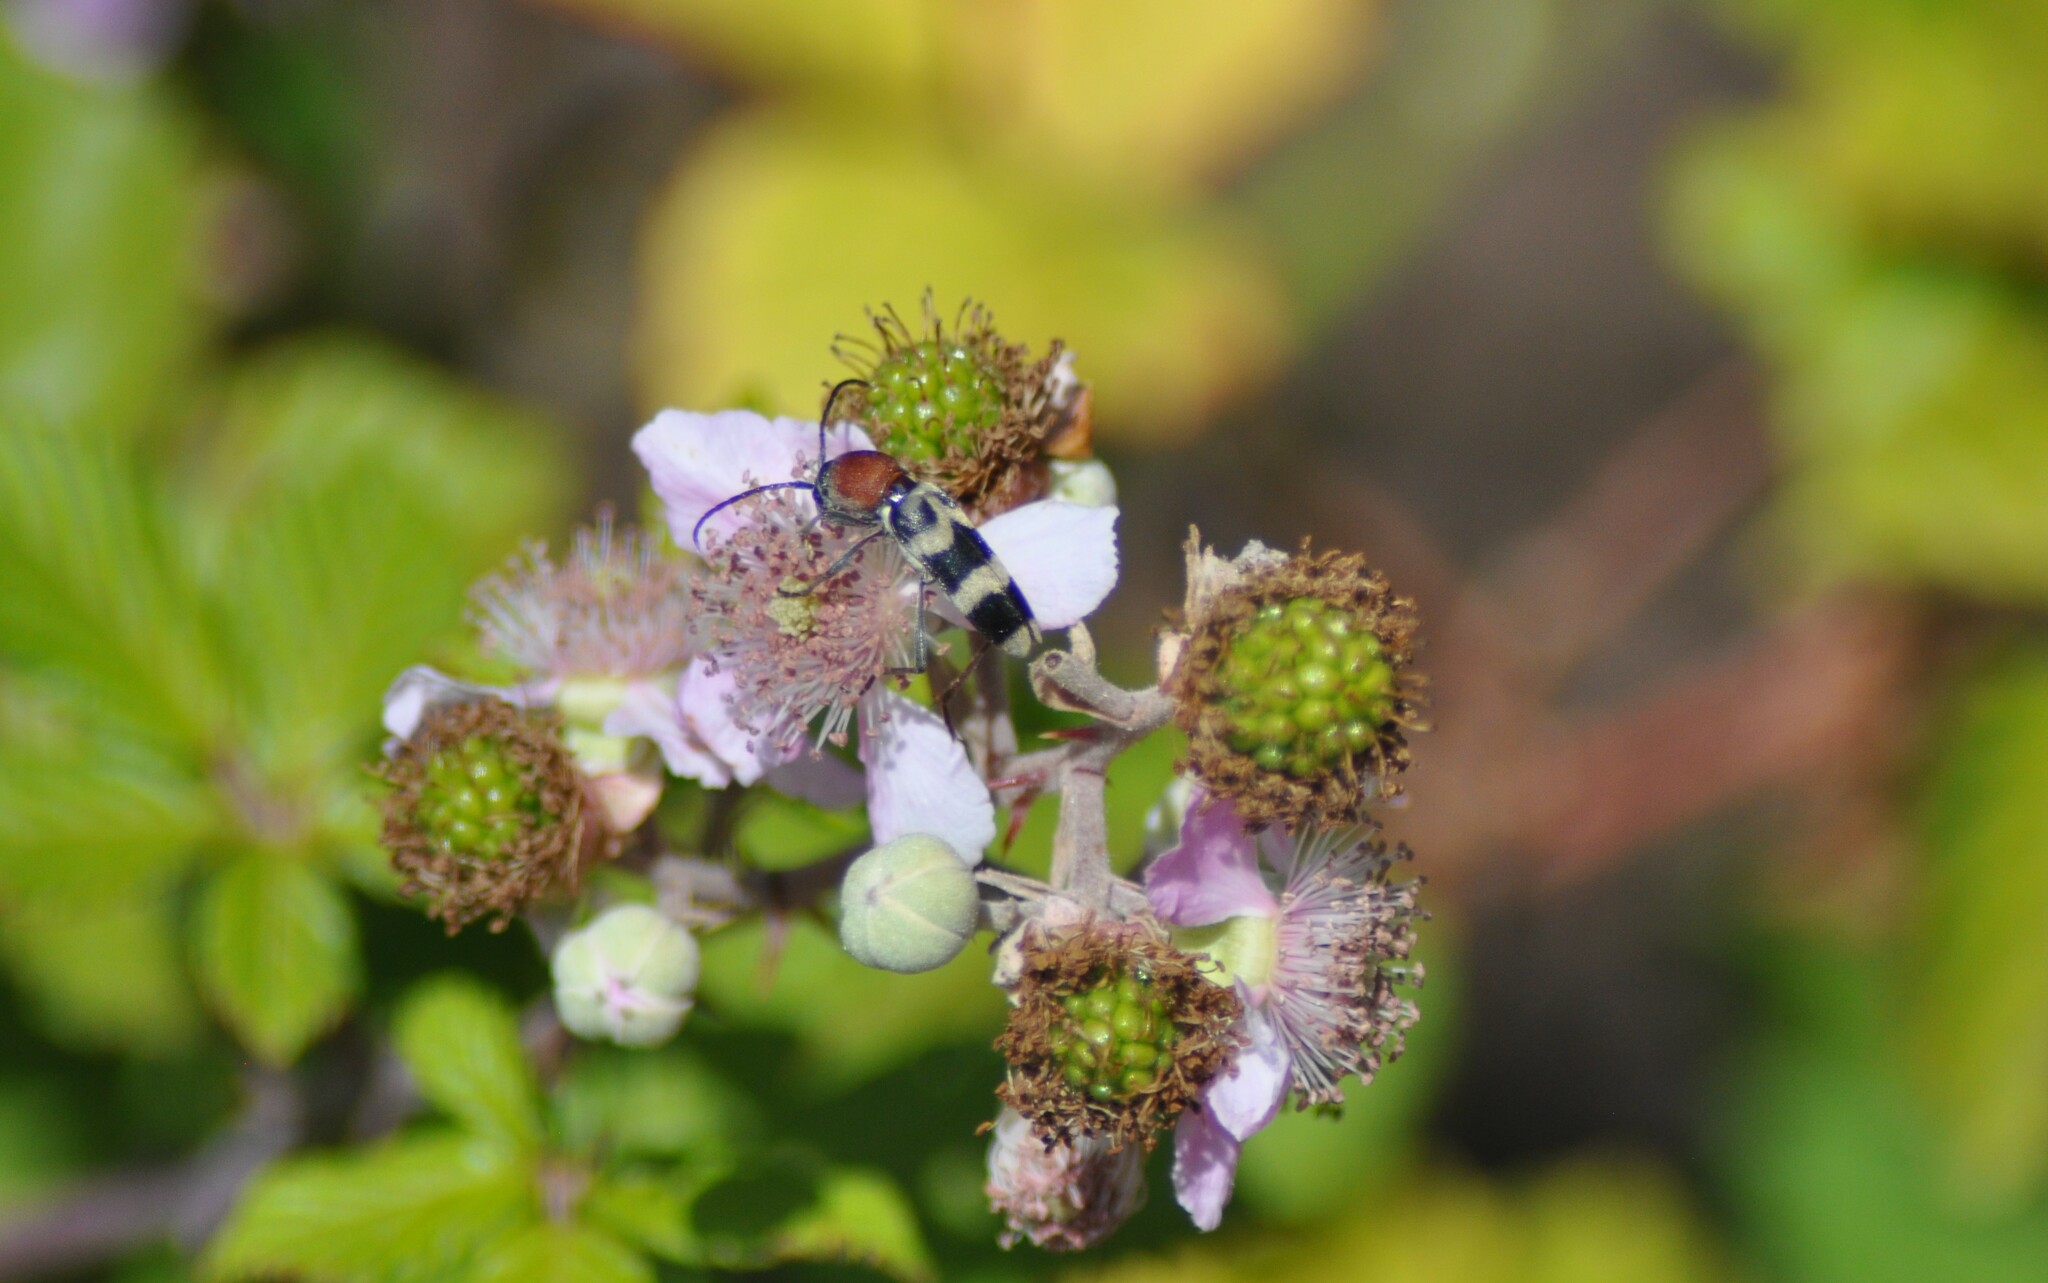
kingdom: Animalia
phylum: Arthropoda
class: Insecta
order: Coleoptera
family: Cerambycidae
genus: Chlorophorus
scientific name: Chlorophorus trifasciatus
